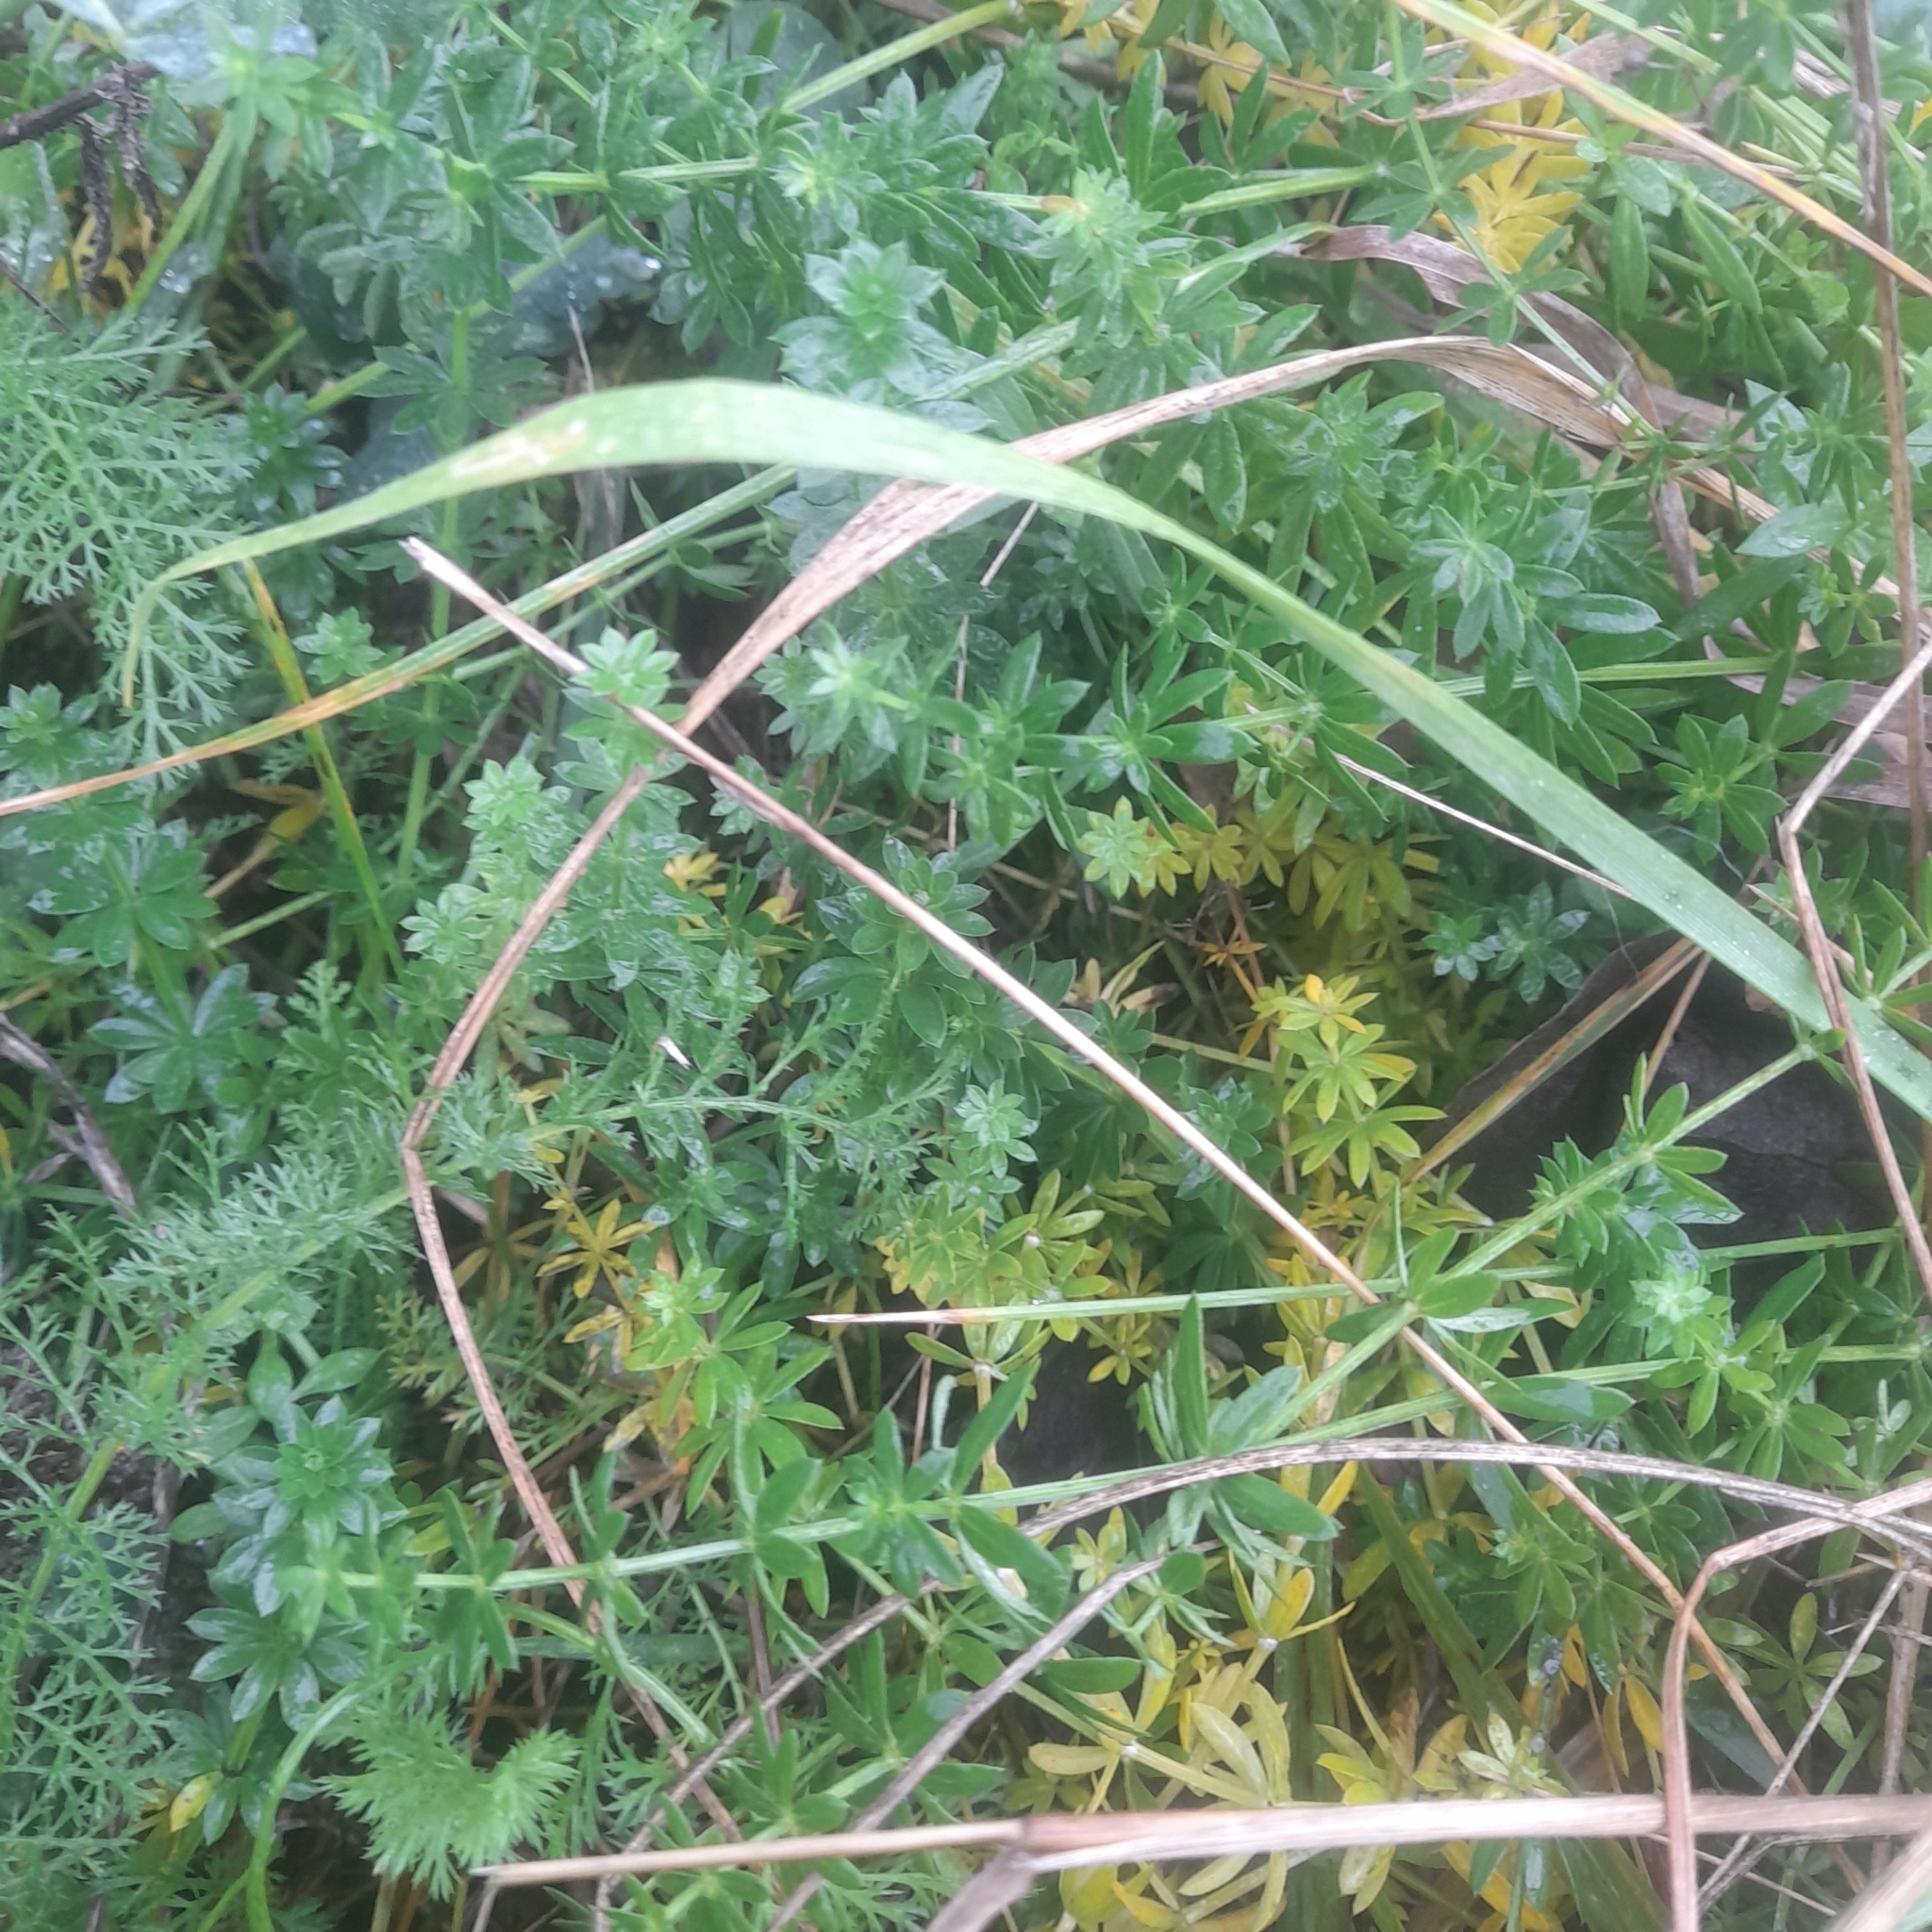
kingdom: Plantae
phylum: Tracheophyta
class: Magnoliopsida
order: Gentianales
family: Rubiaceae
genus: Galium
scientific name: Galium mollugo
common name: Hedge bedstraw
